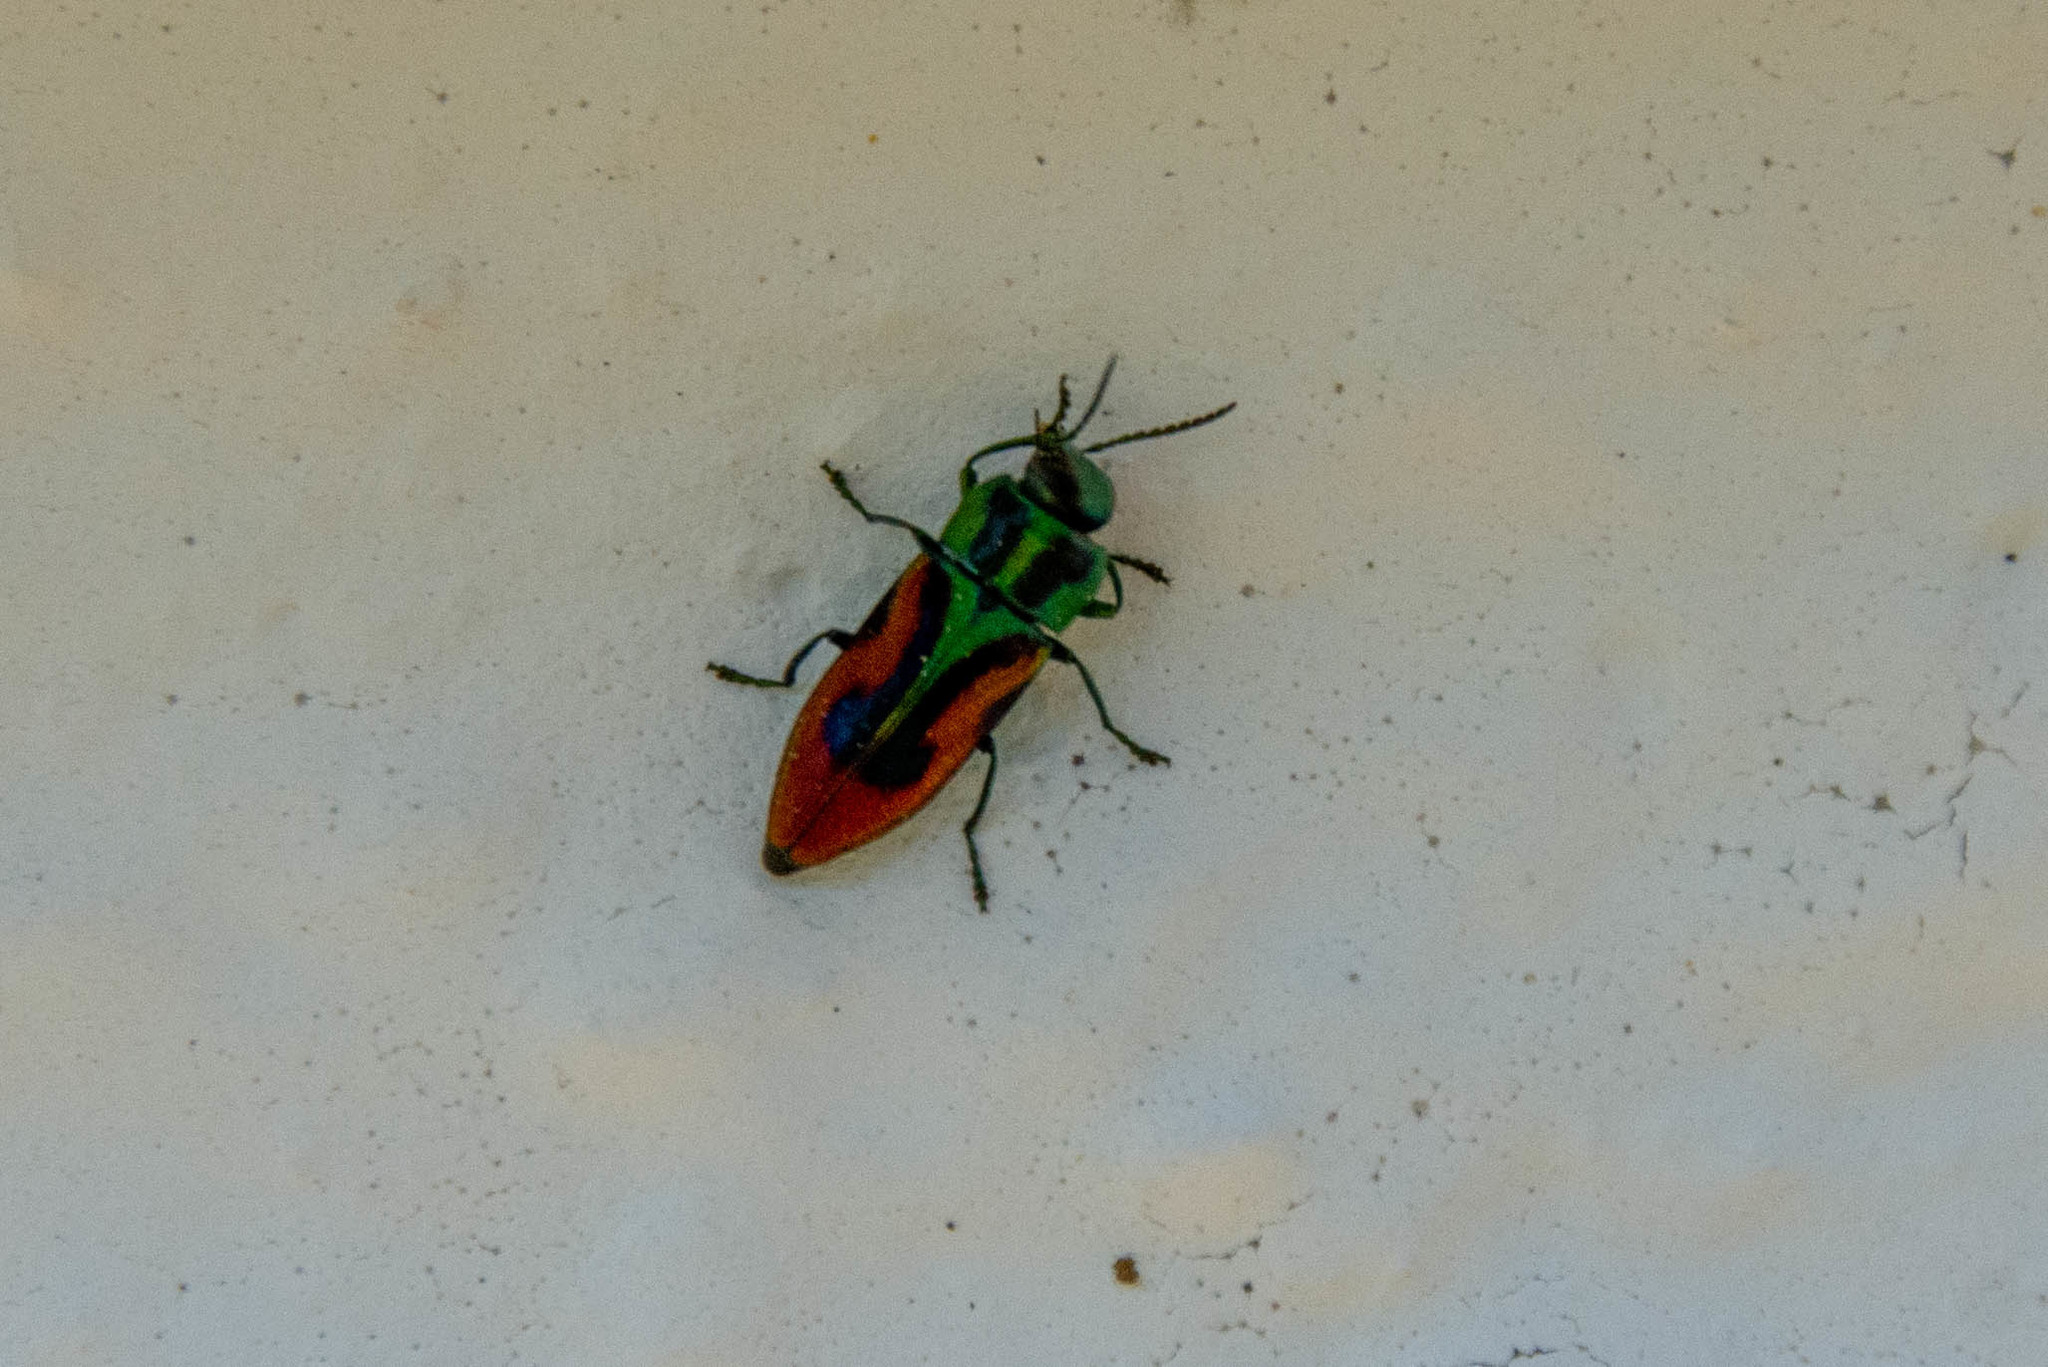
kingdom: Animalia
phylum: Arthropoda
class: Insecta
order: Coleoptera
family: Buprestidae
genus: Anthaxia
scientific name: Anthaxia candens
